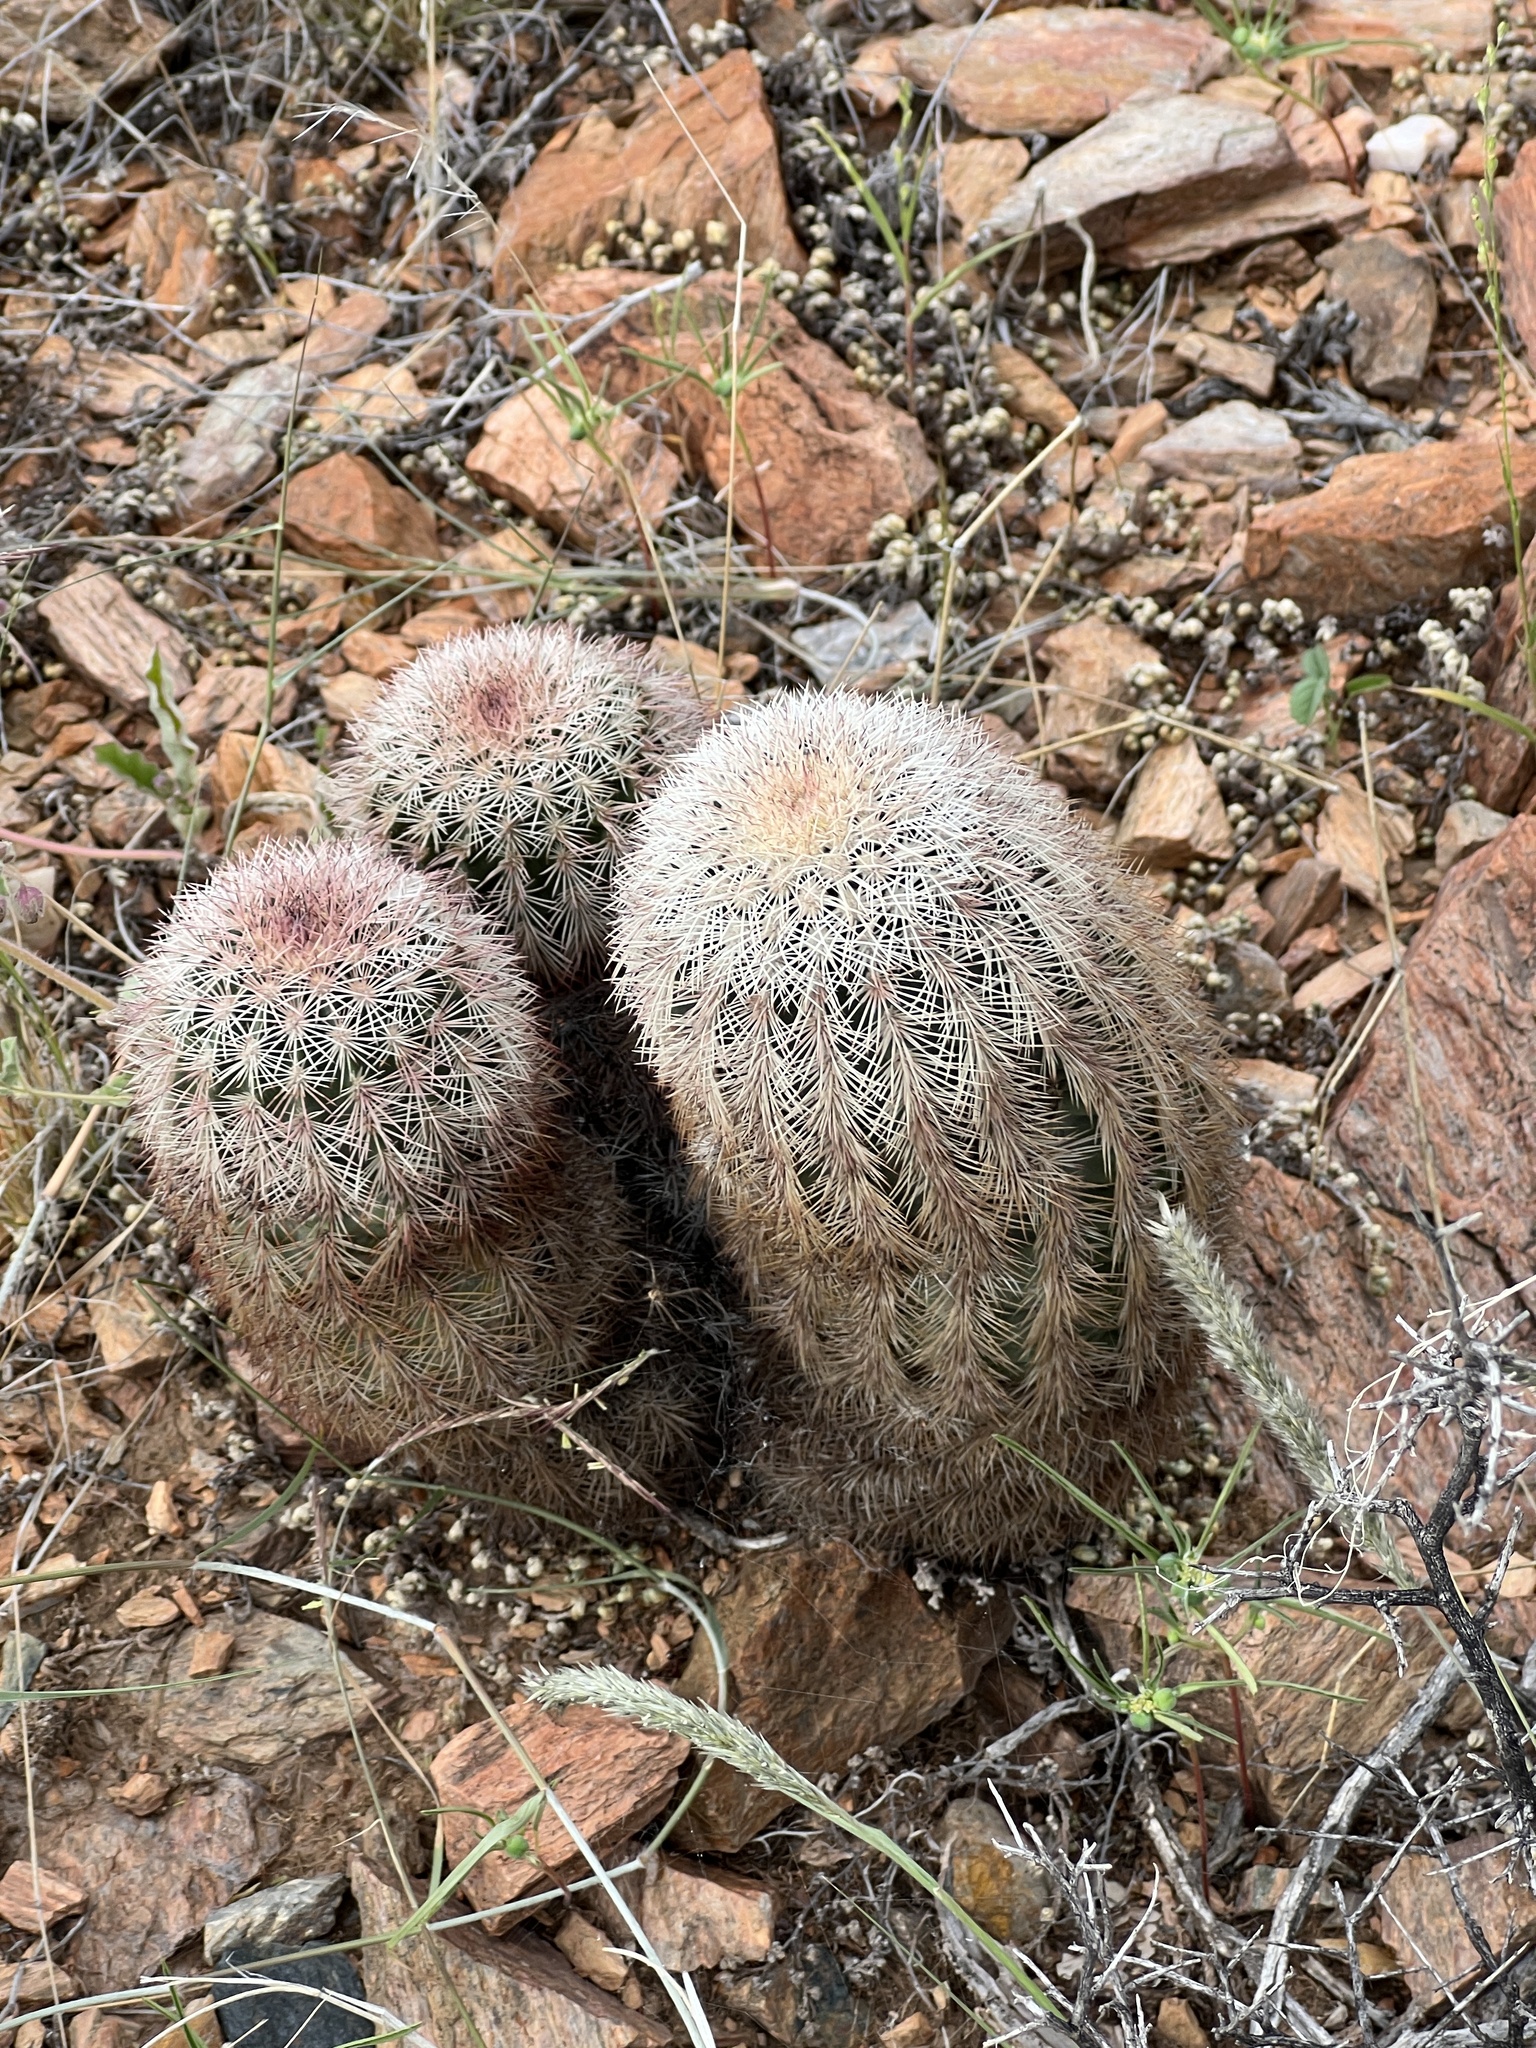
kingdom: Plantae
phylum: Tracheophyta
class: Magnoliopsida
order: Caryophyllales
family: Cactaceae
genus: Echinocereus
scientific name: Echinocereus dasyacanthus
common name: Spiny hedgehog cactus
